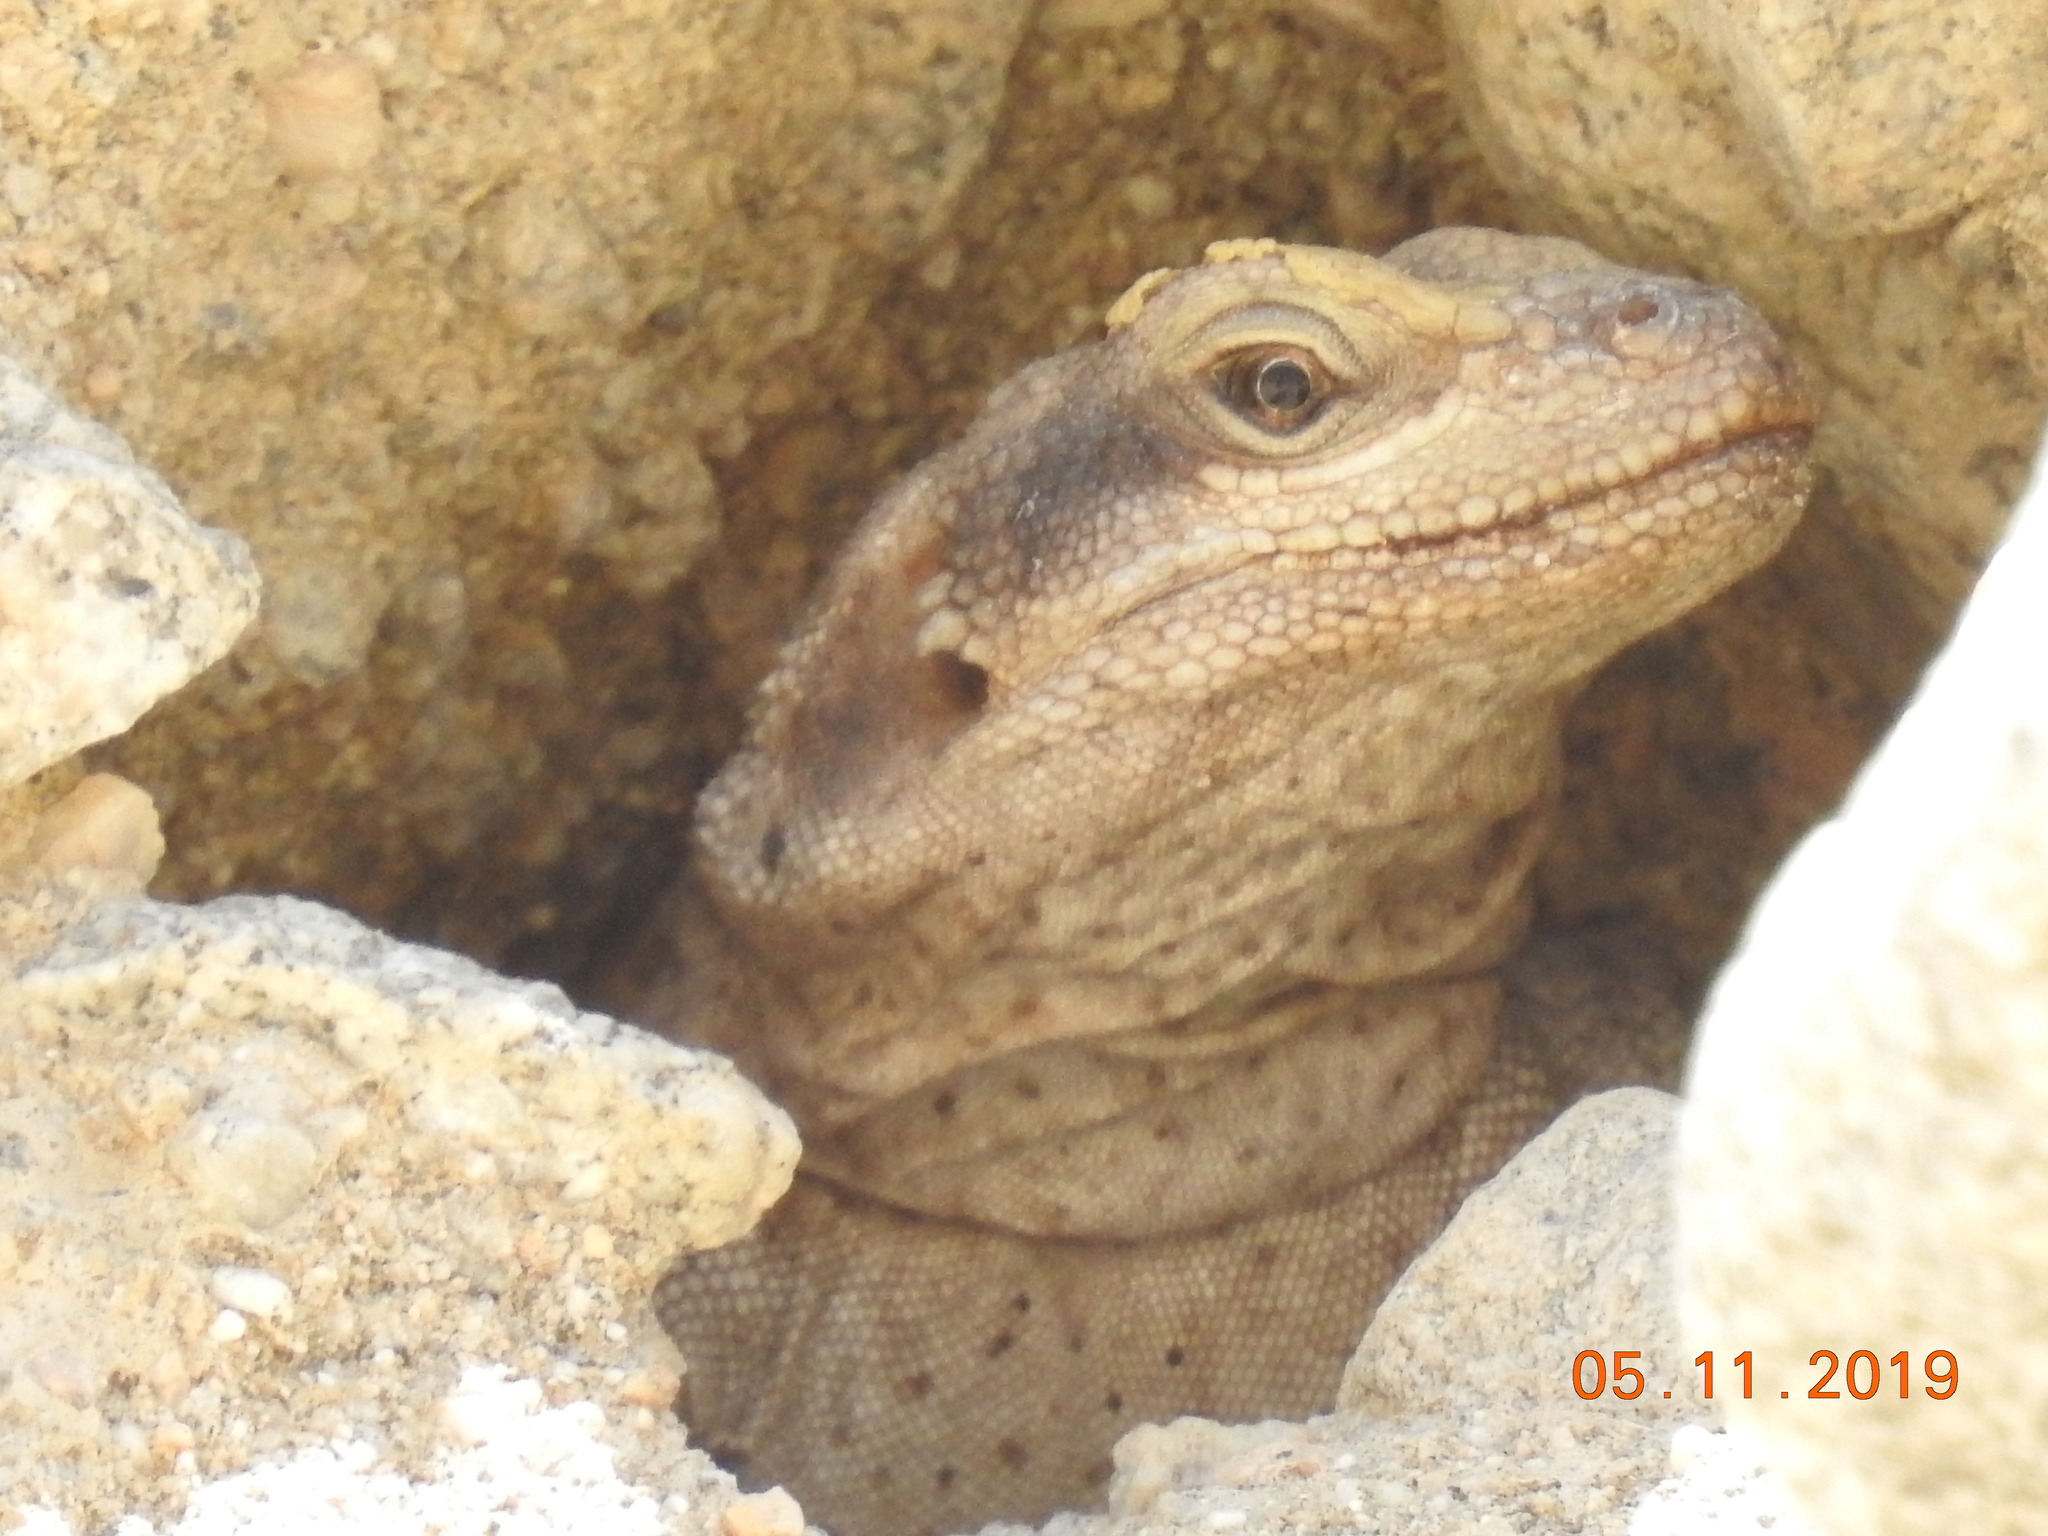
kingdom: Animalia
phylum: Chordata
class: Squamata
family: Iguanidae
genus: Sauromalus
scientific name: Sauromalus ater
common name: Northern chuckwalla
